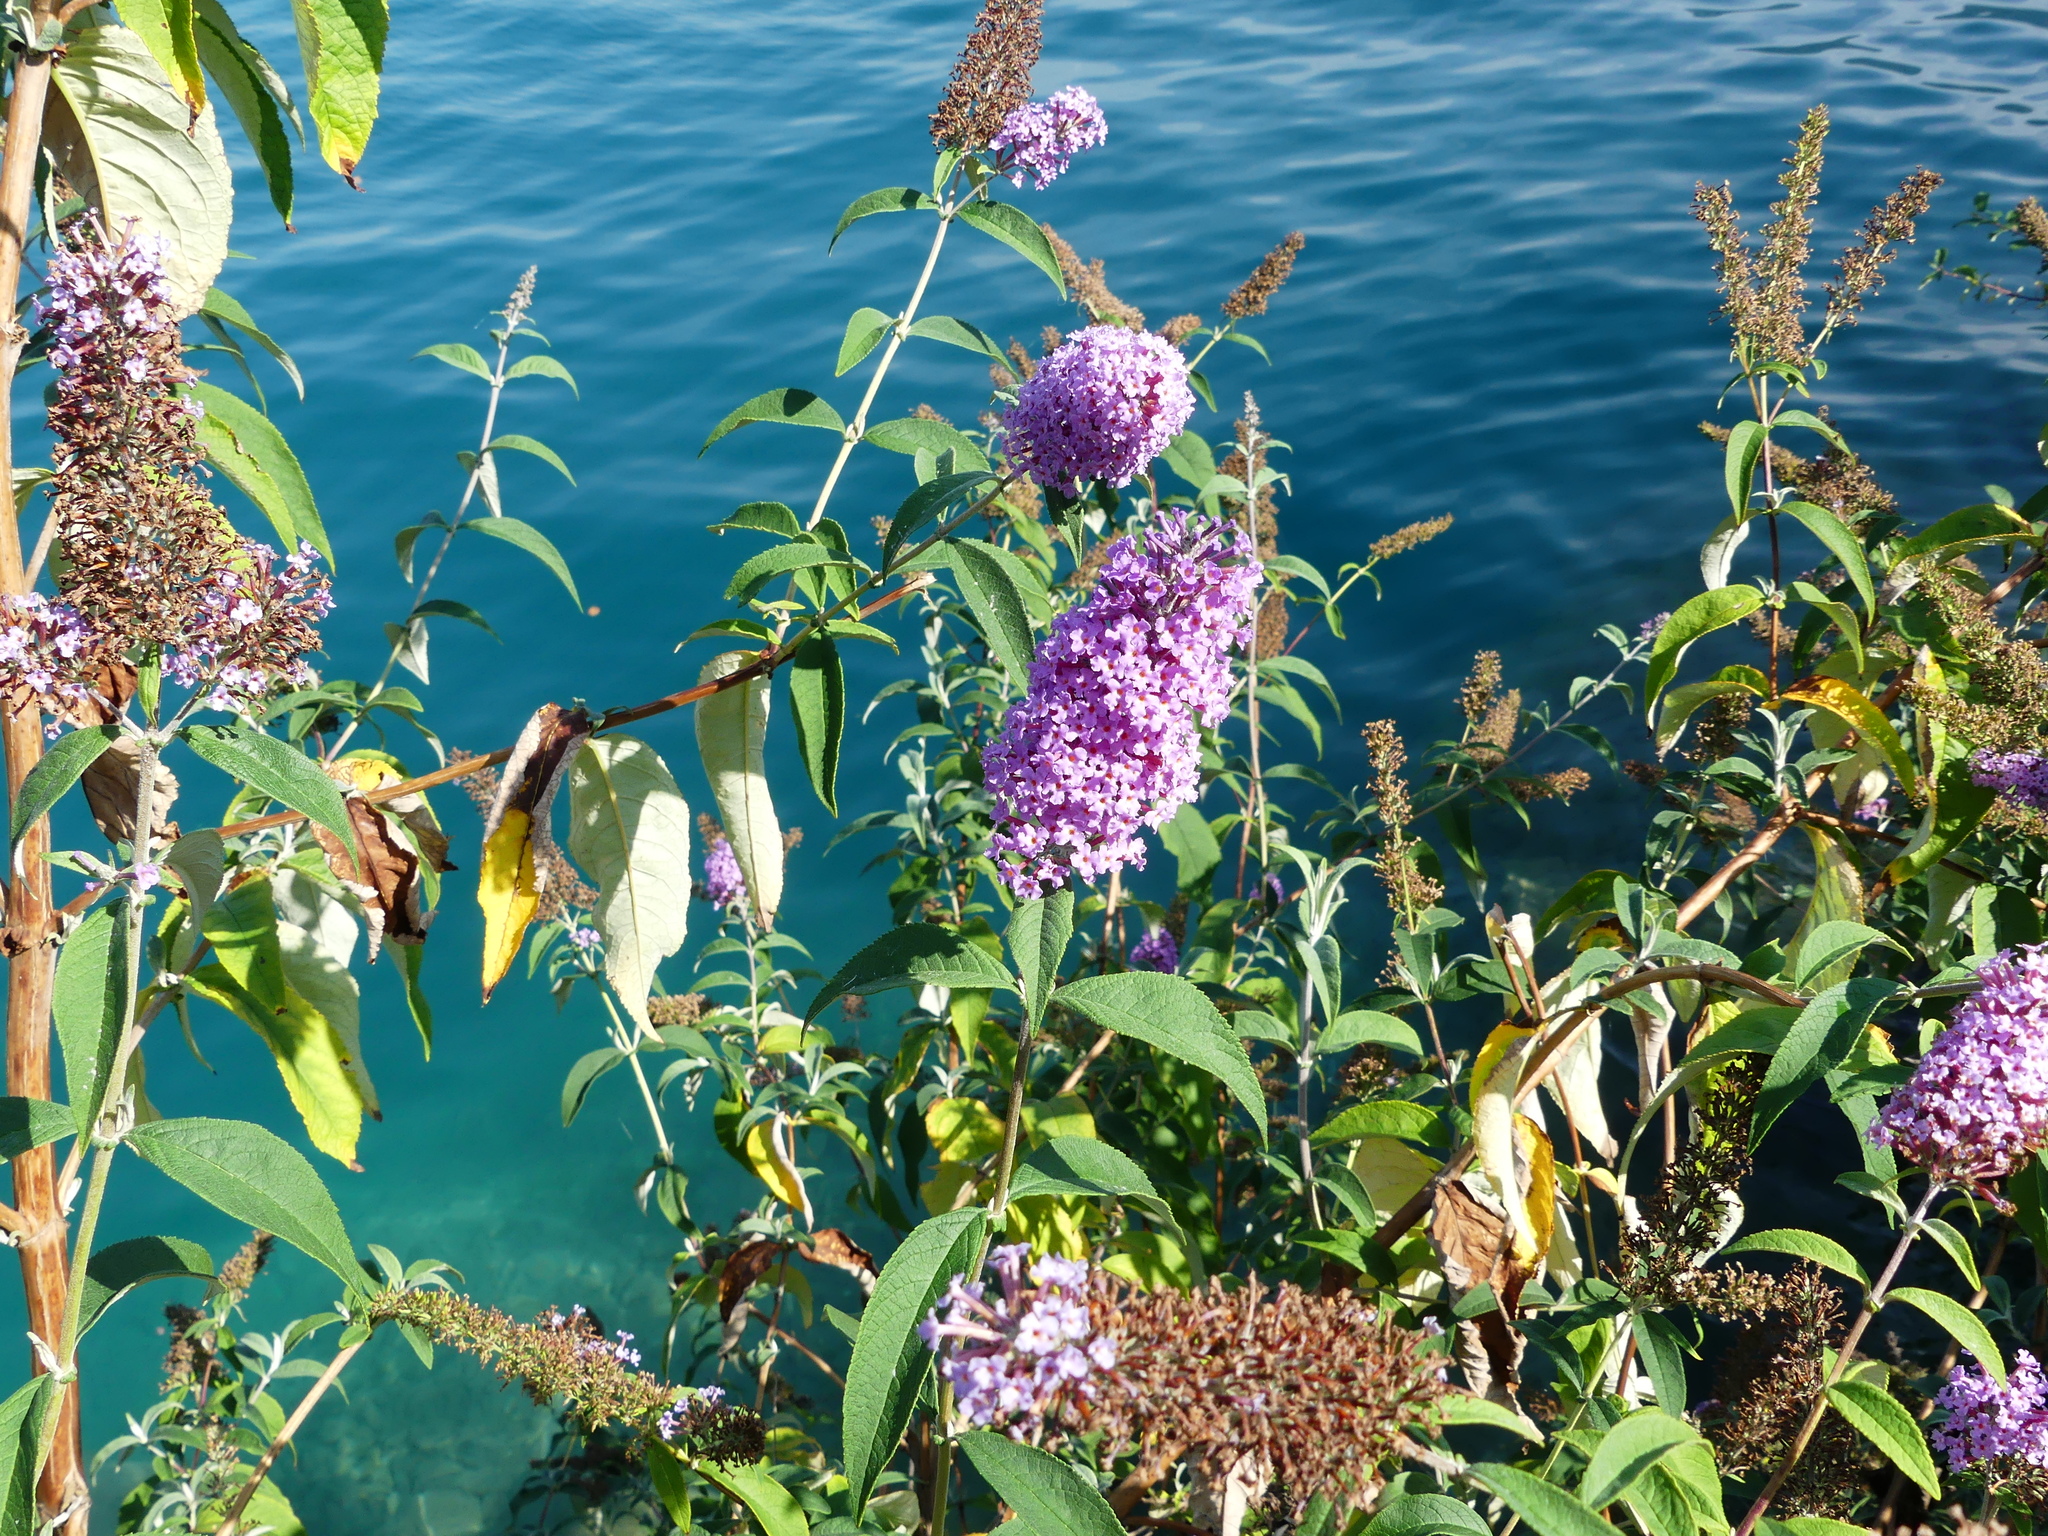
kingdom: Plantae
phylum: Tracheophyta
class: Magnoliopsida
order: Lamiales
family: Scrophulariaceae
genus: Buddleja
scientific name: Buddleja davidii
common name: Butterfly-bush
